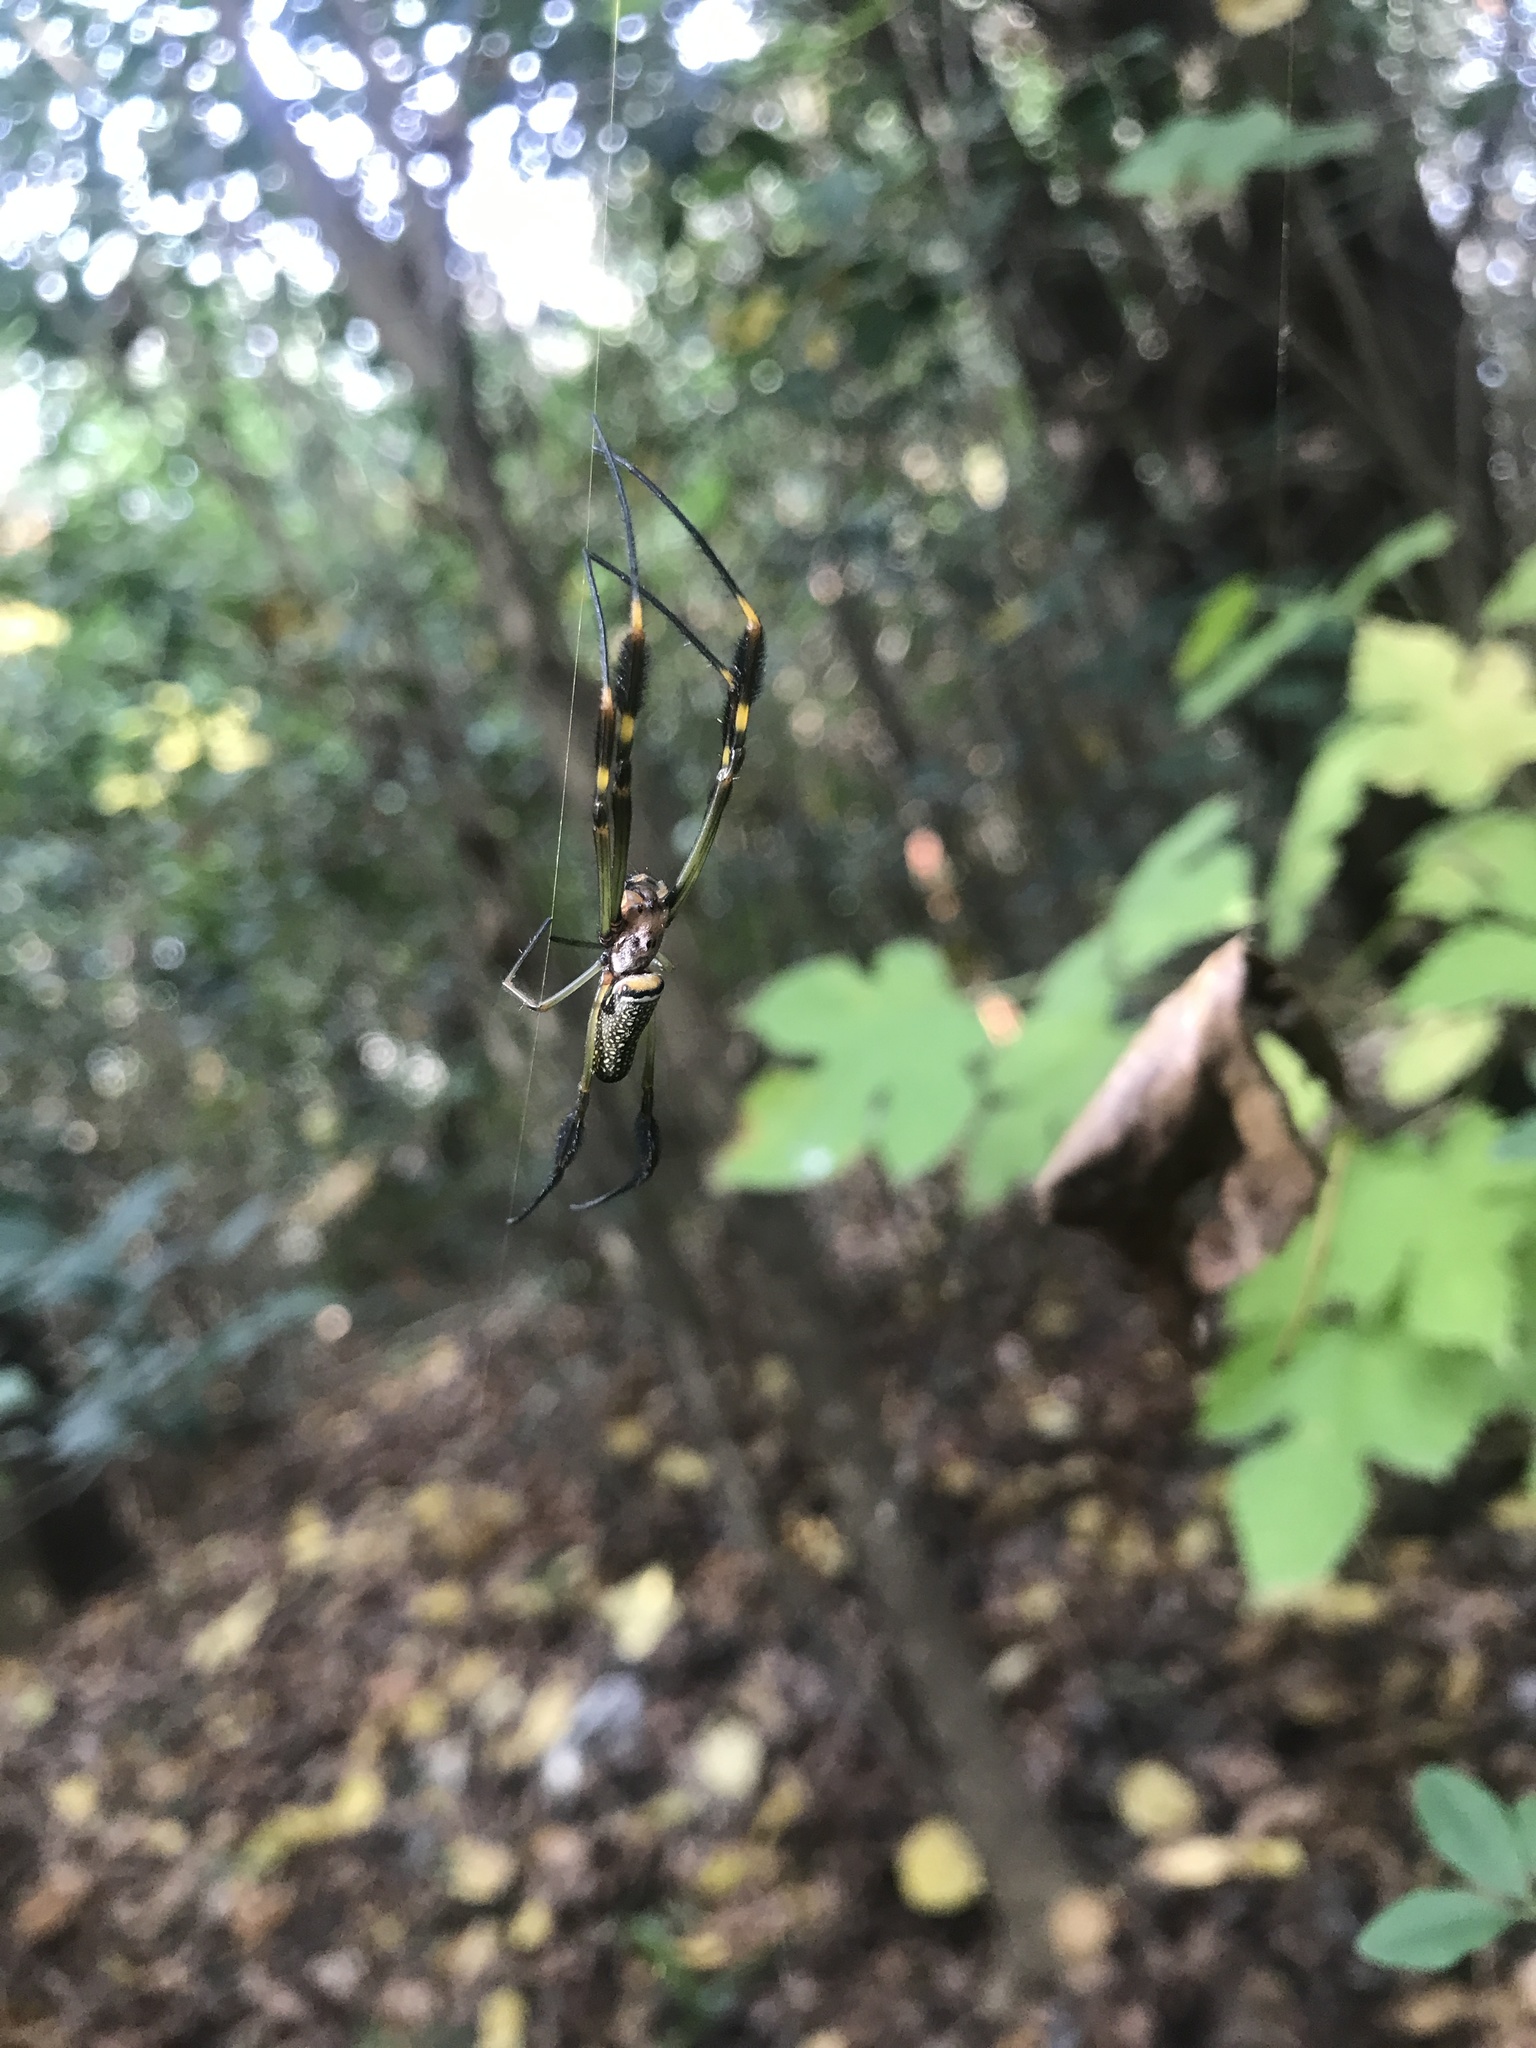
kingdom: Animalia
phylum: Arthropoda
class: Arachnida
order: Araneae
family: Araneidae
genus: Trichonephila
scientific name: Trichonephila clavipes
